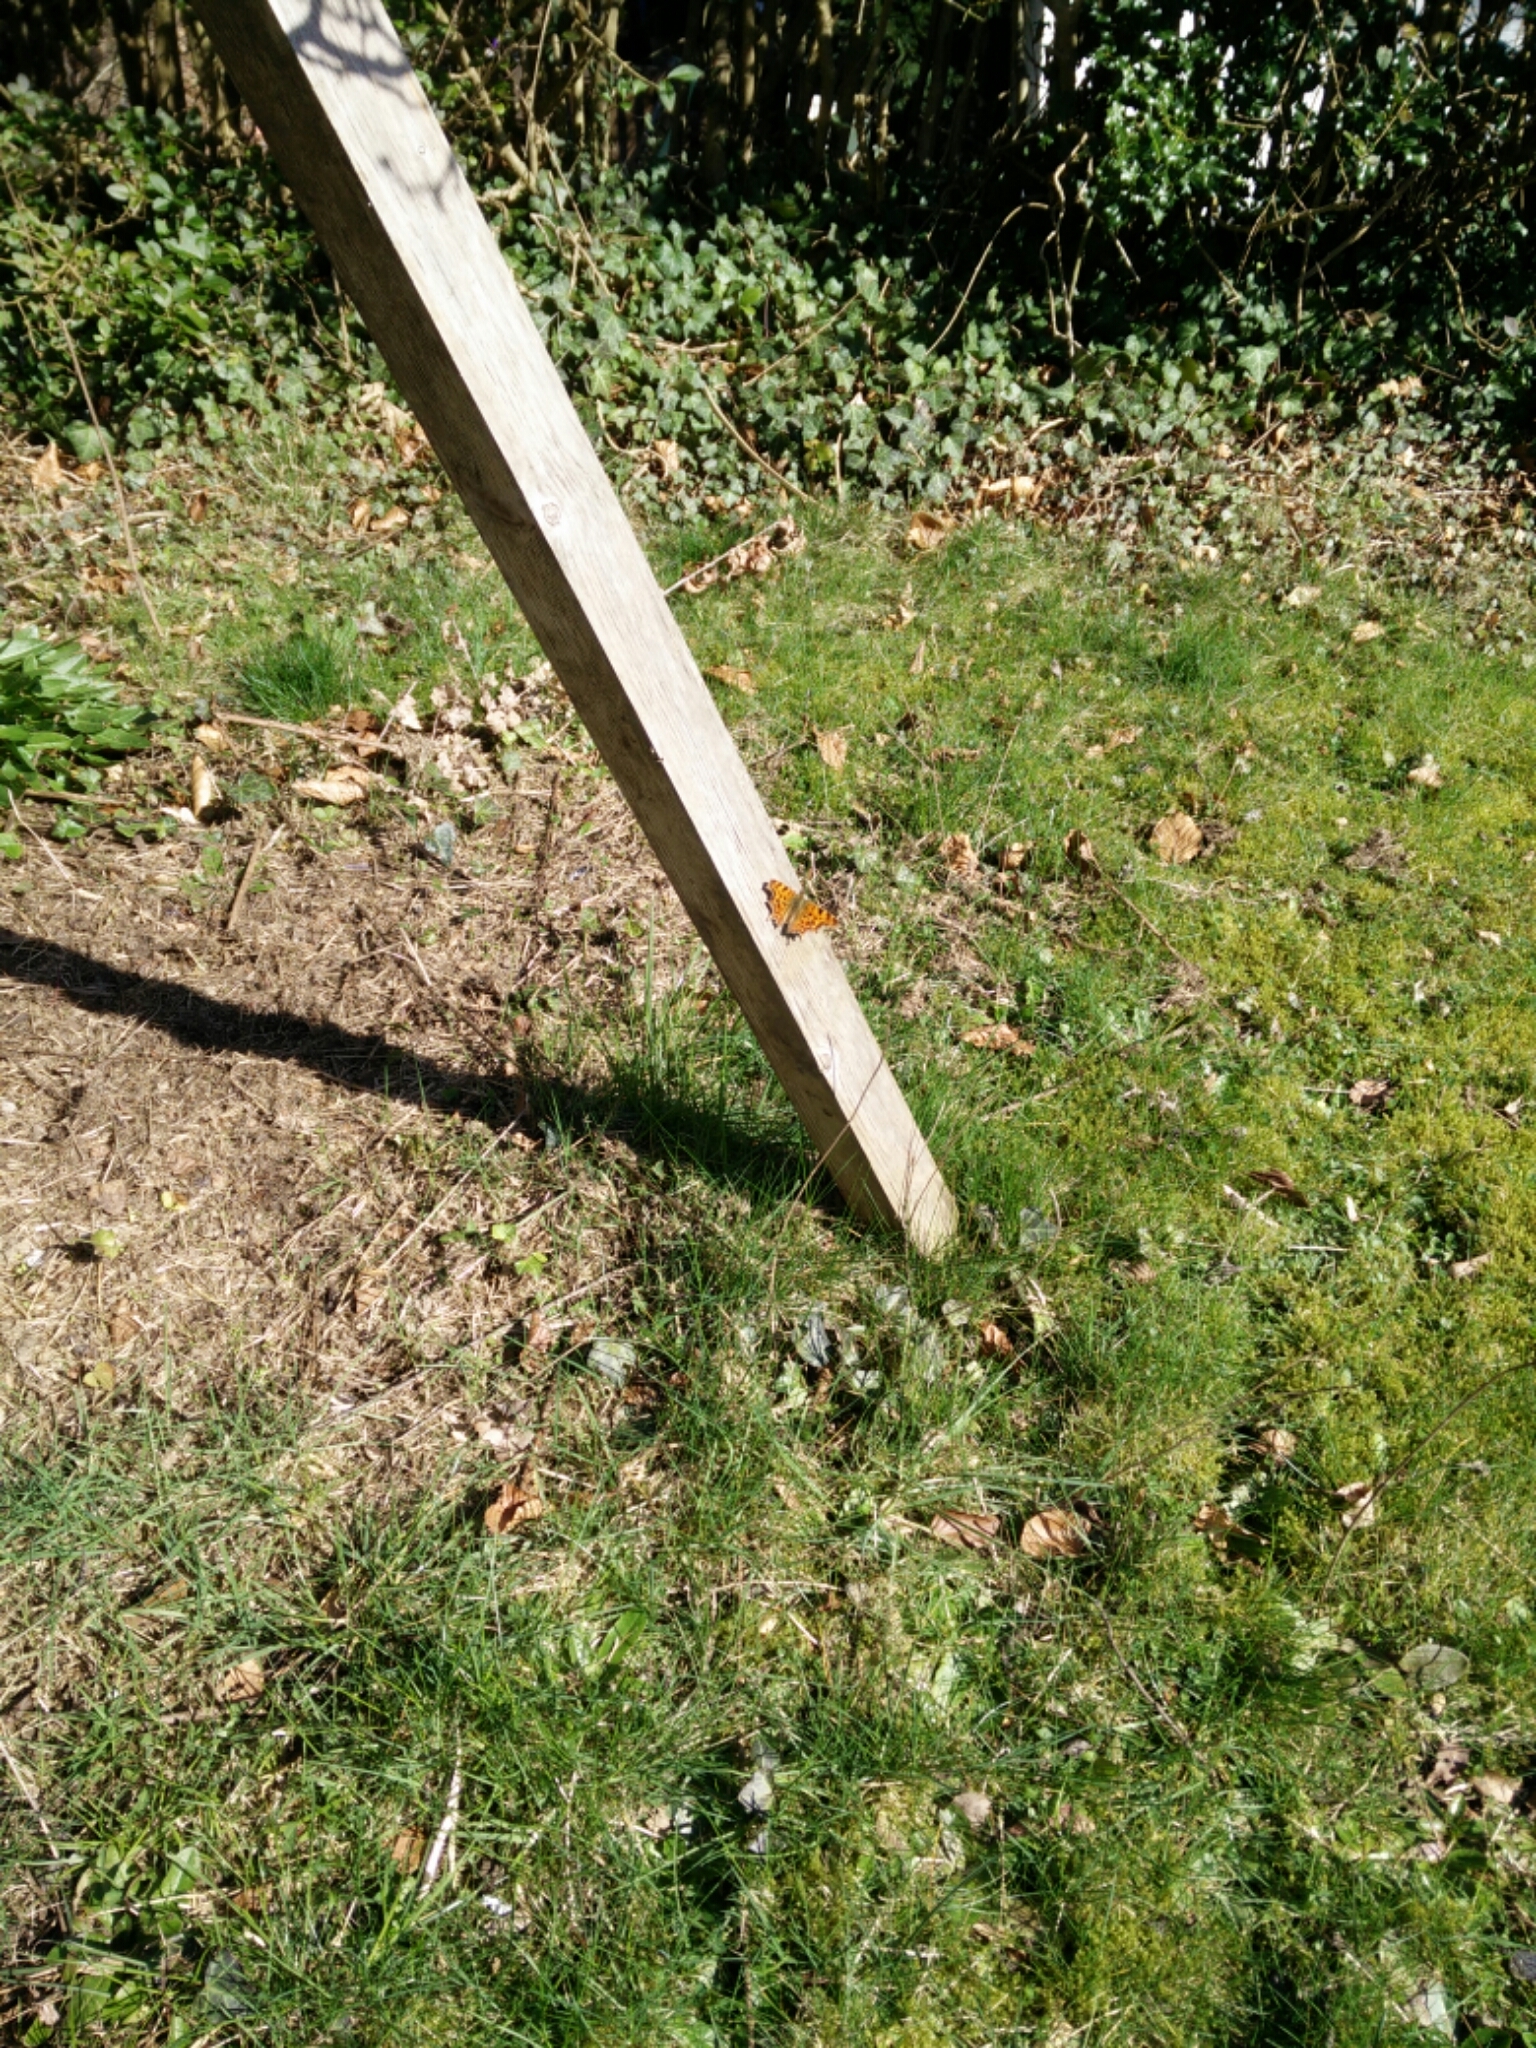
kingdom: Animalia
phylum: Arthropoda
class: Insecta
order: Lepidoptera
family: Nymphalidae
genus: Polygonia
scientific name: Polygonia c-album
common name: Comma
